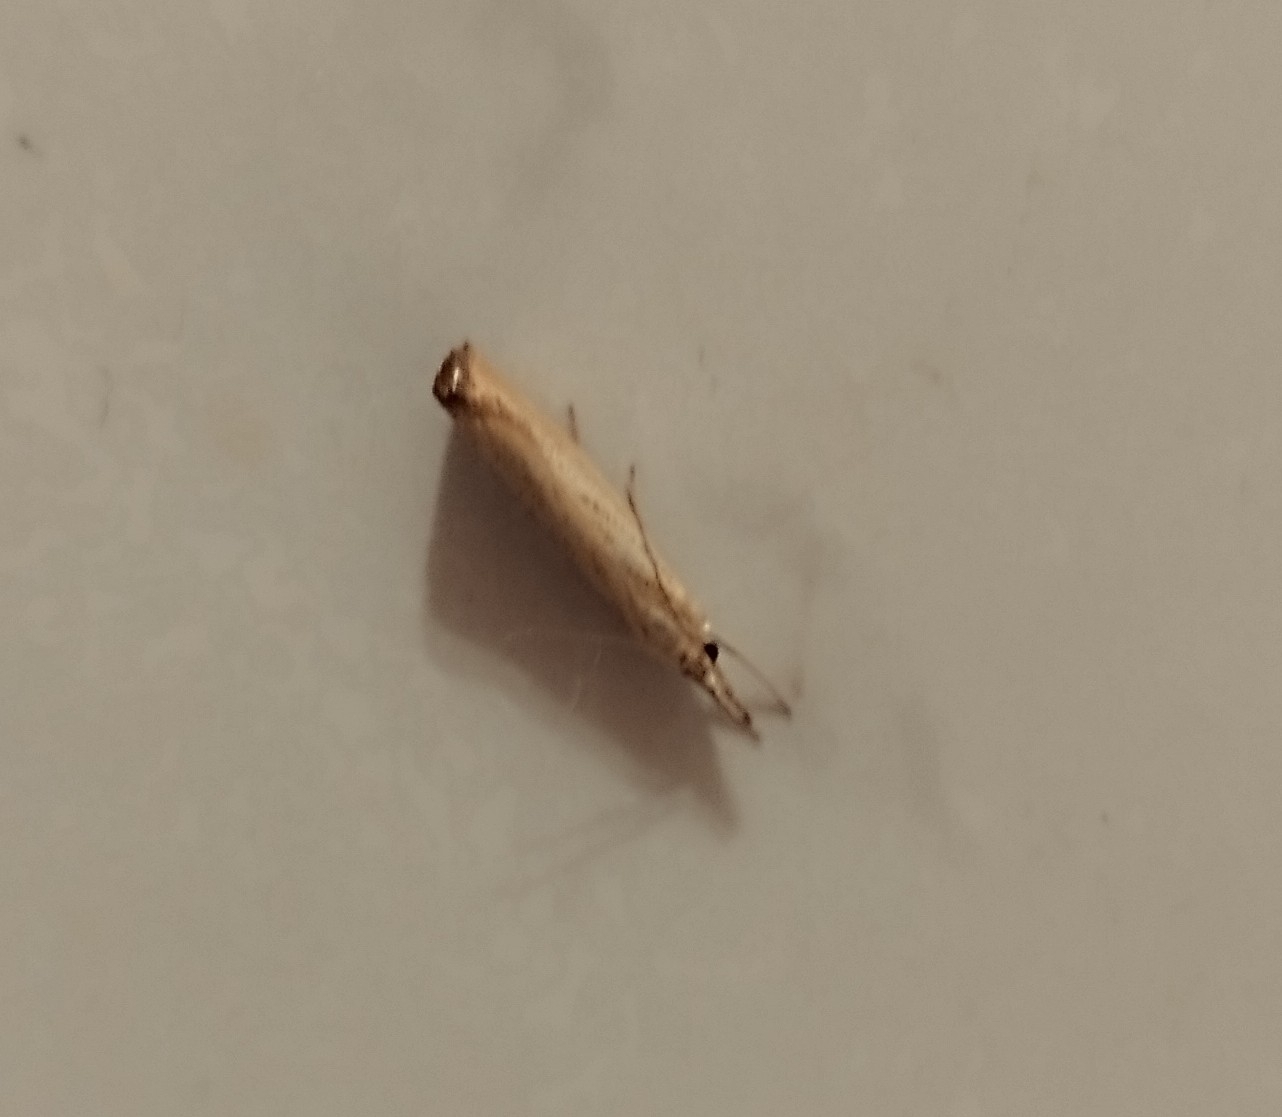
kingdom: Animalia
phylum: Arthropoda
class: Insecta
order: Lepidoptera
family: Crambidae
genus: Agriphila
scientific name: Agriphila straminella
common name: Straw grass-veneer
